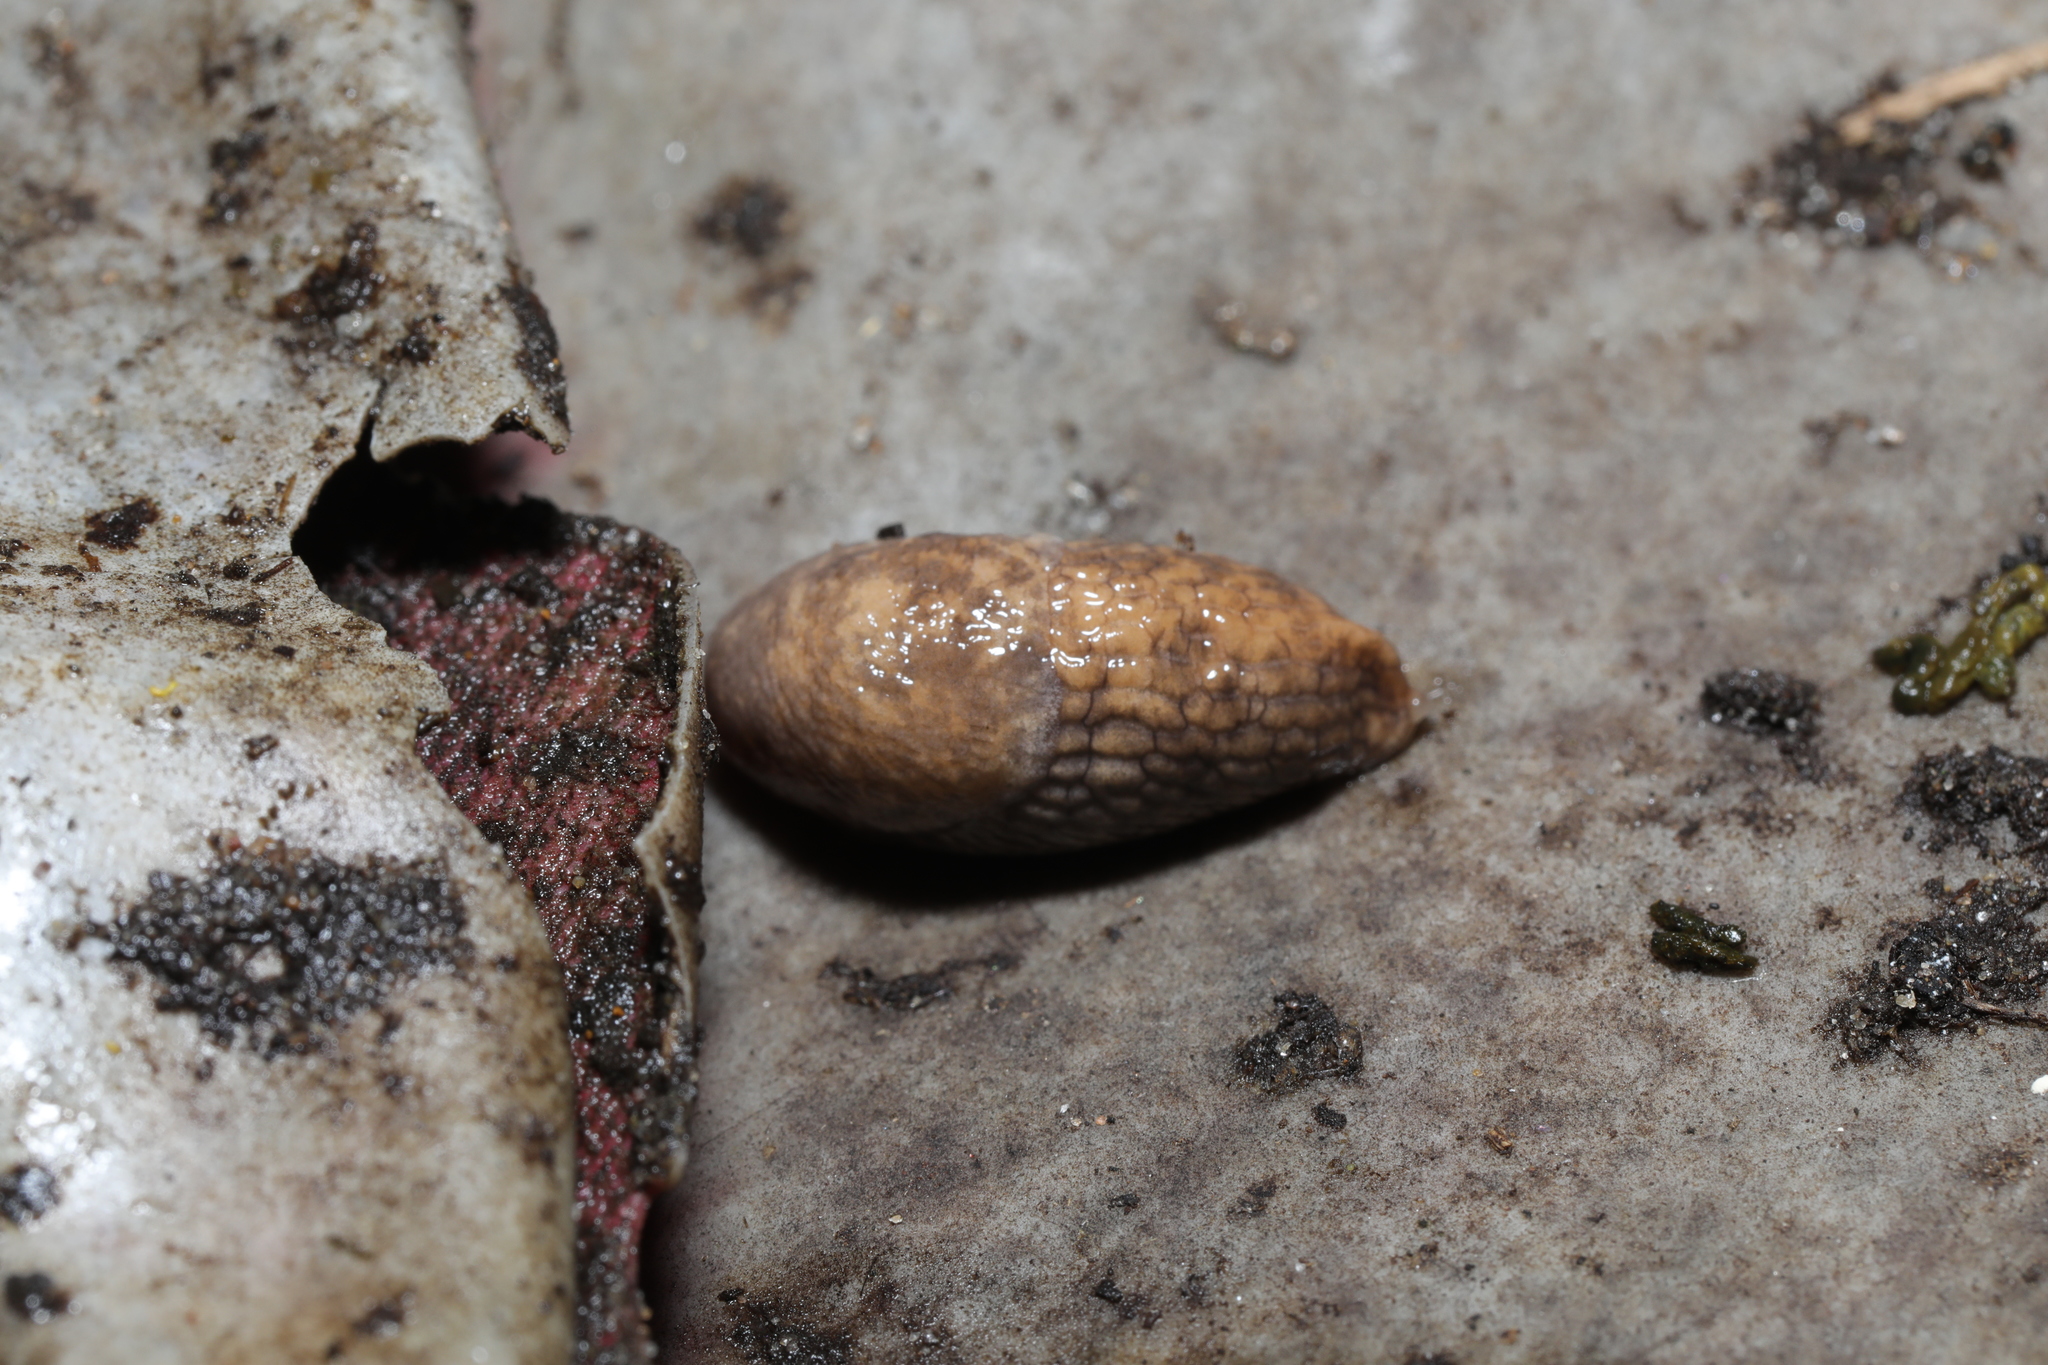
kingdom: Animalia
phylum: Mollusca
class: Gastropoda
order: Stylommatophora
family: Agriolimacidae
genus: Deroceras
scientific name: Deroceras reticulatum
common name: Gray field slug
